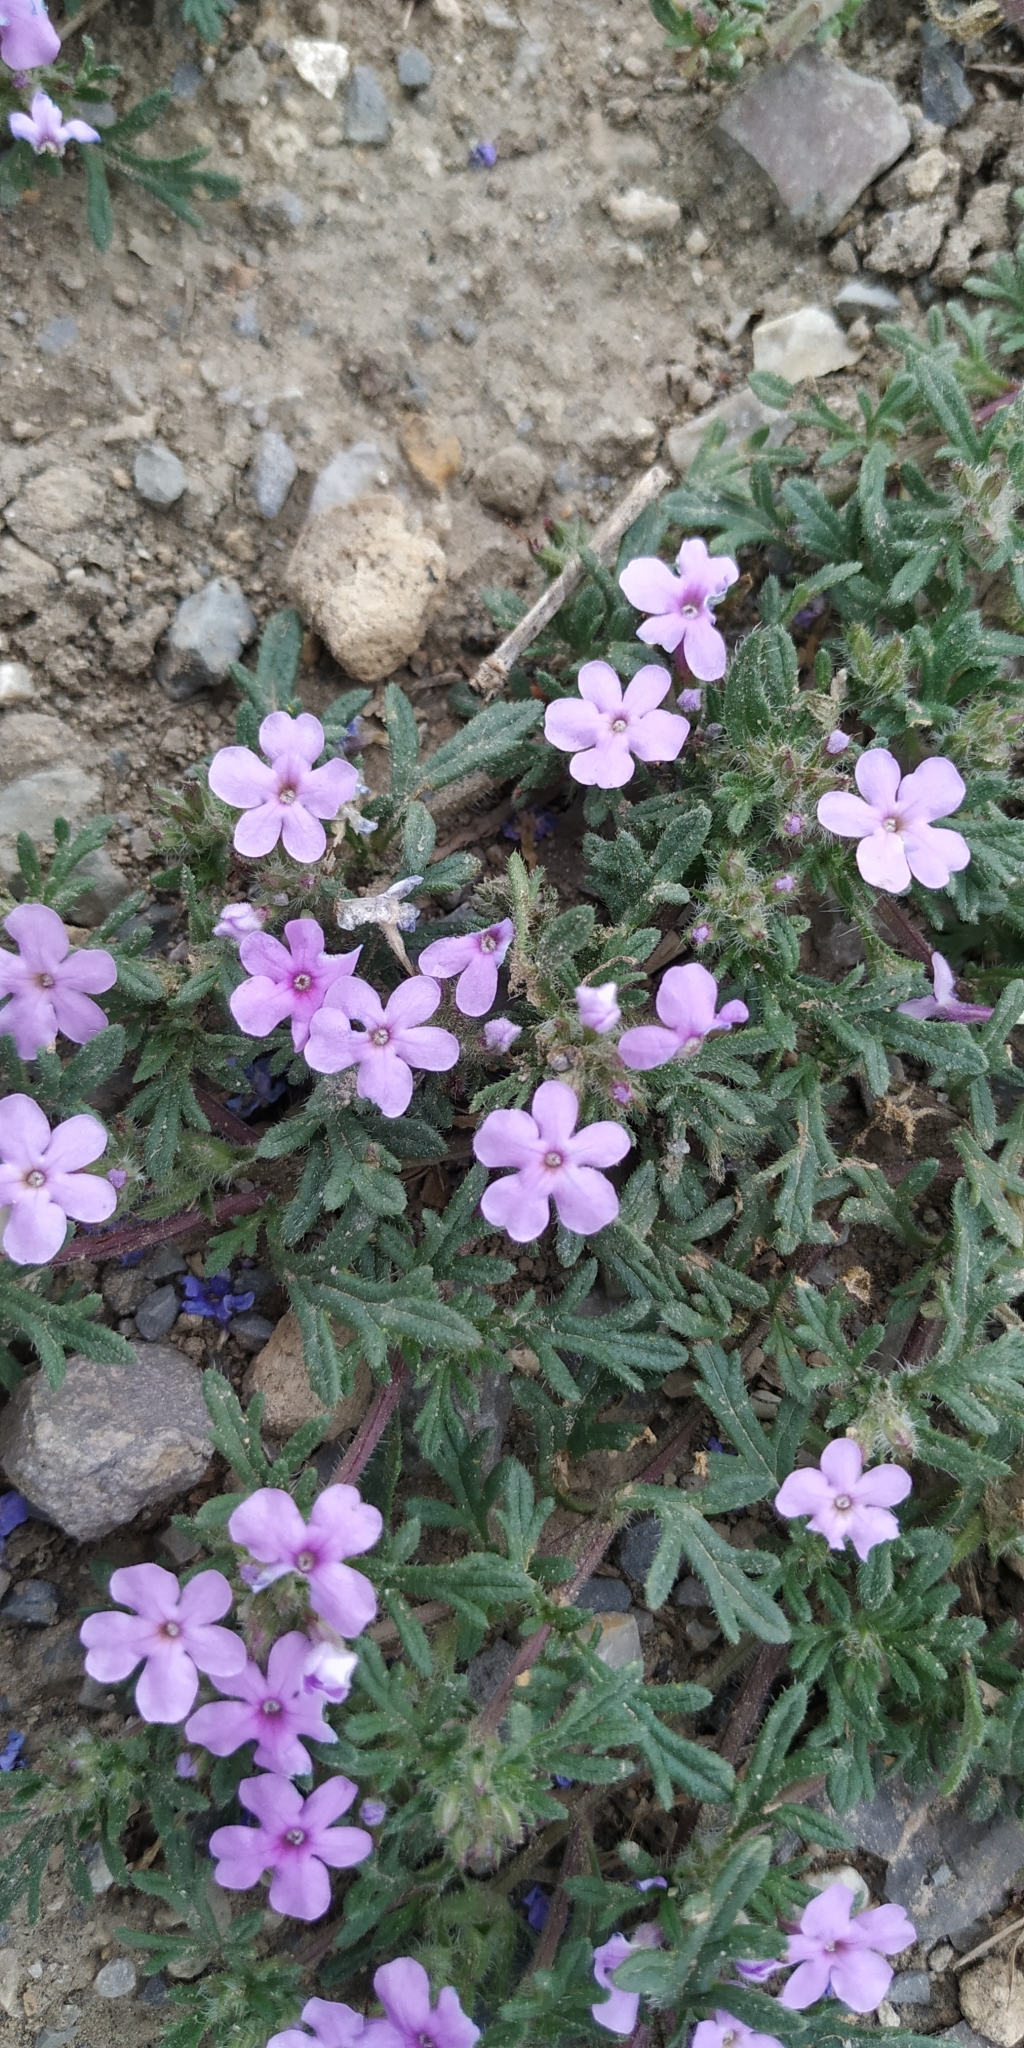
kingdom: Plantae
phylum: Tracheophyta
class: Magnoliopsida
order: Lamiales
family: Verbenaceae
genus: Verbena
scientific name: Verbena bipinnatifida
